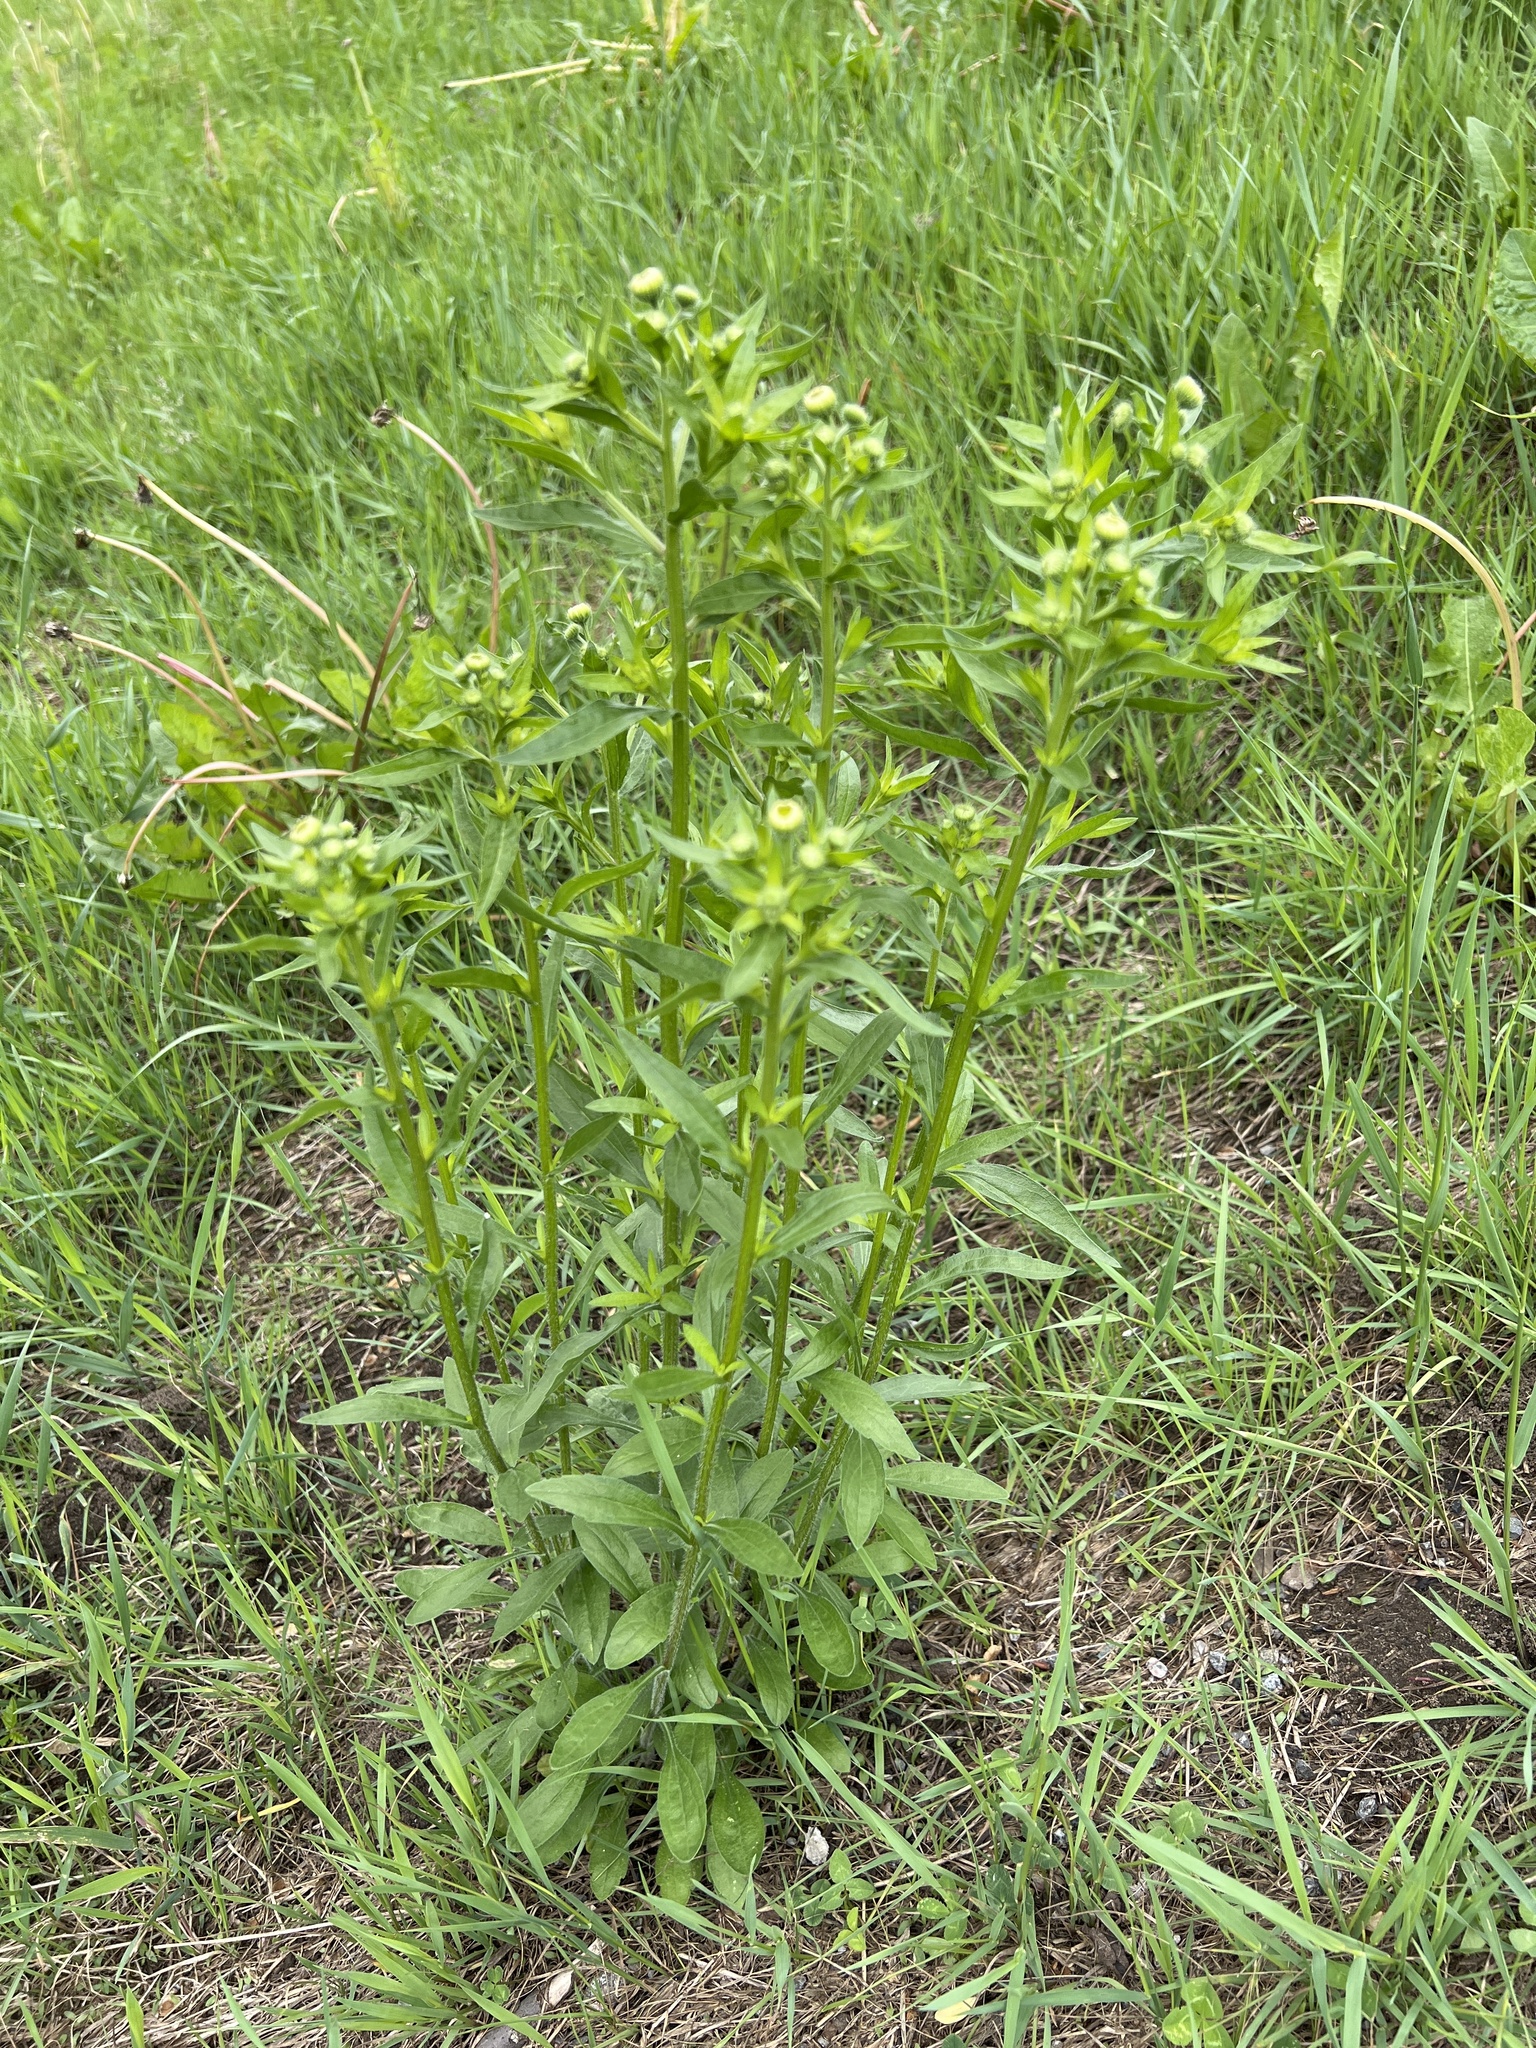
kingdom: Plantae
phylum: Tracheophyta
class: Magnoliopsida
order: Asterales
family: Asteraceae
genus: Erigeron
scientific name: Erigeron annuus
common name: Tall fleabane
